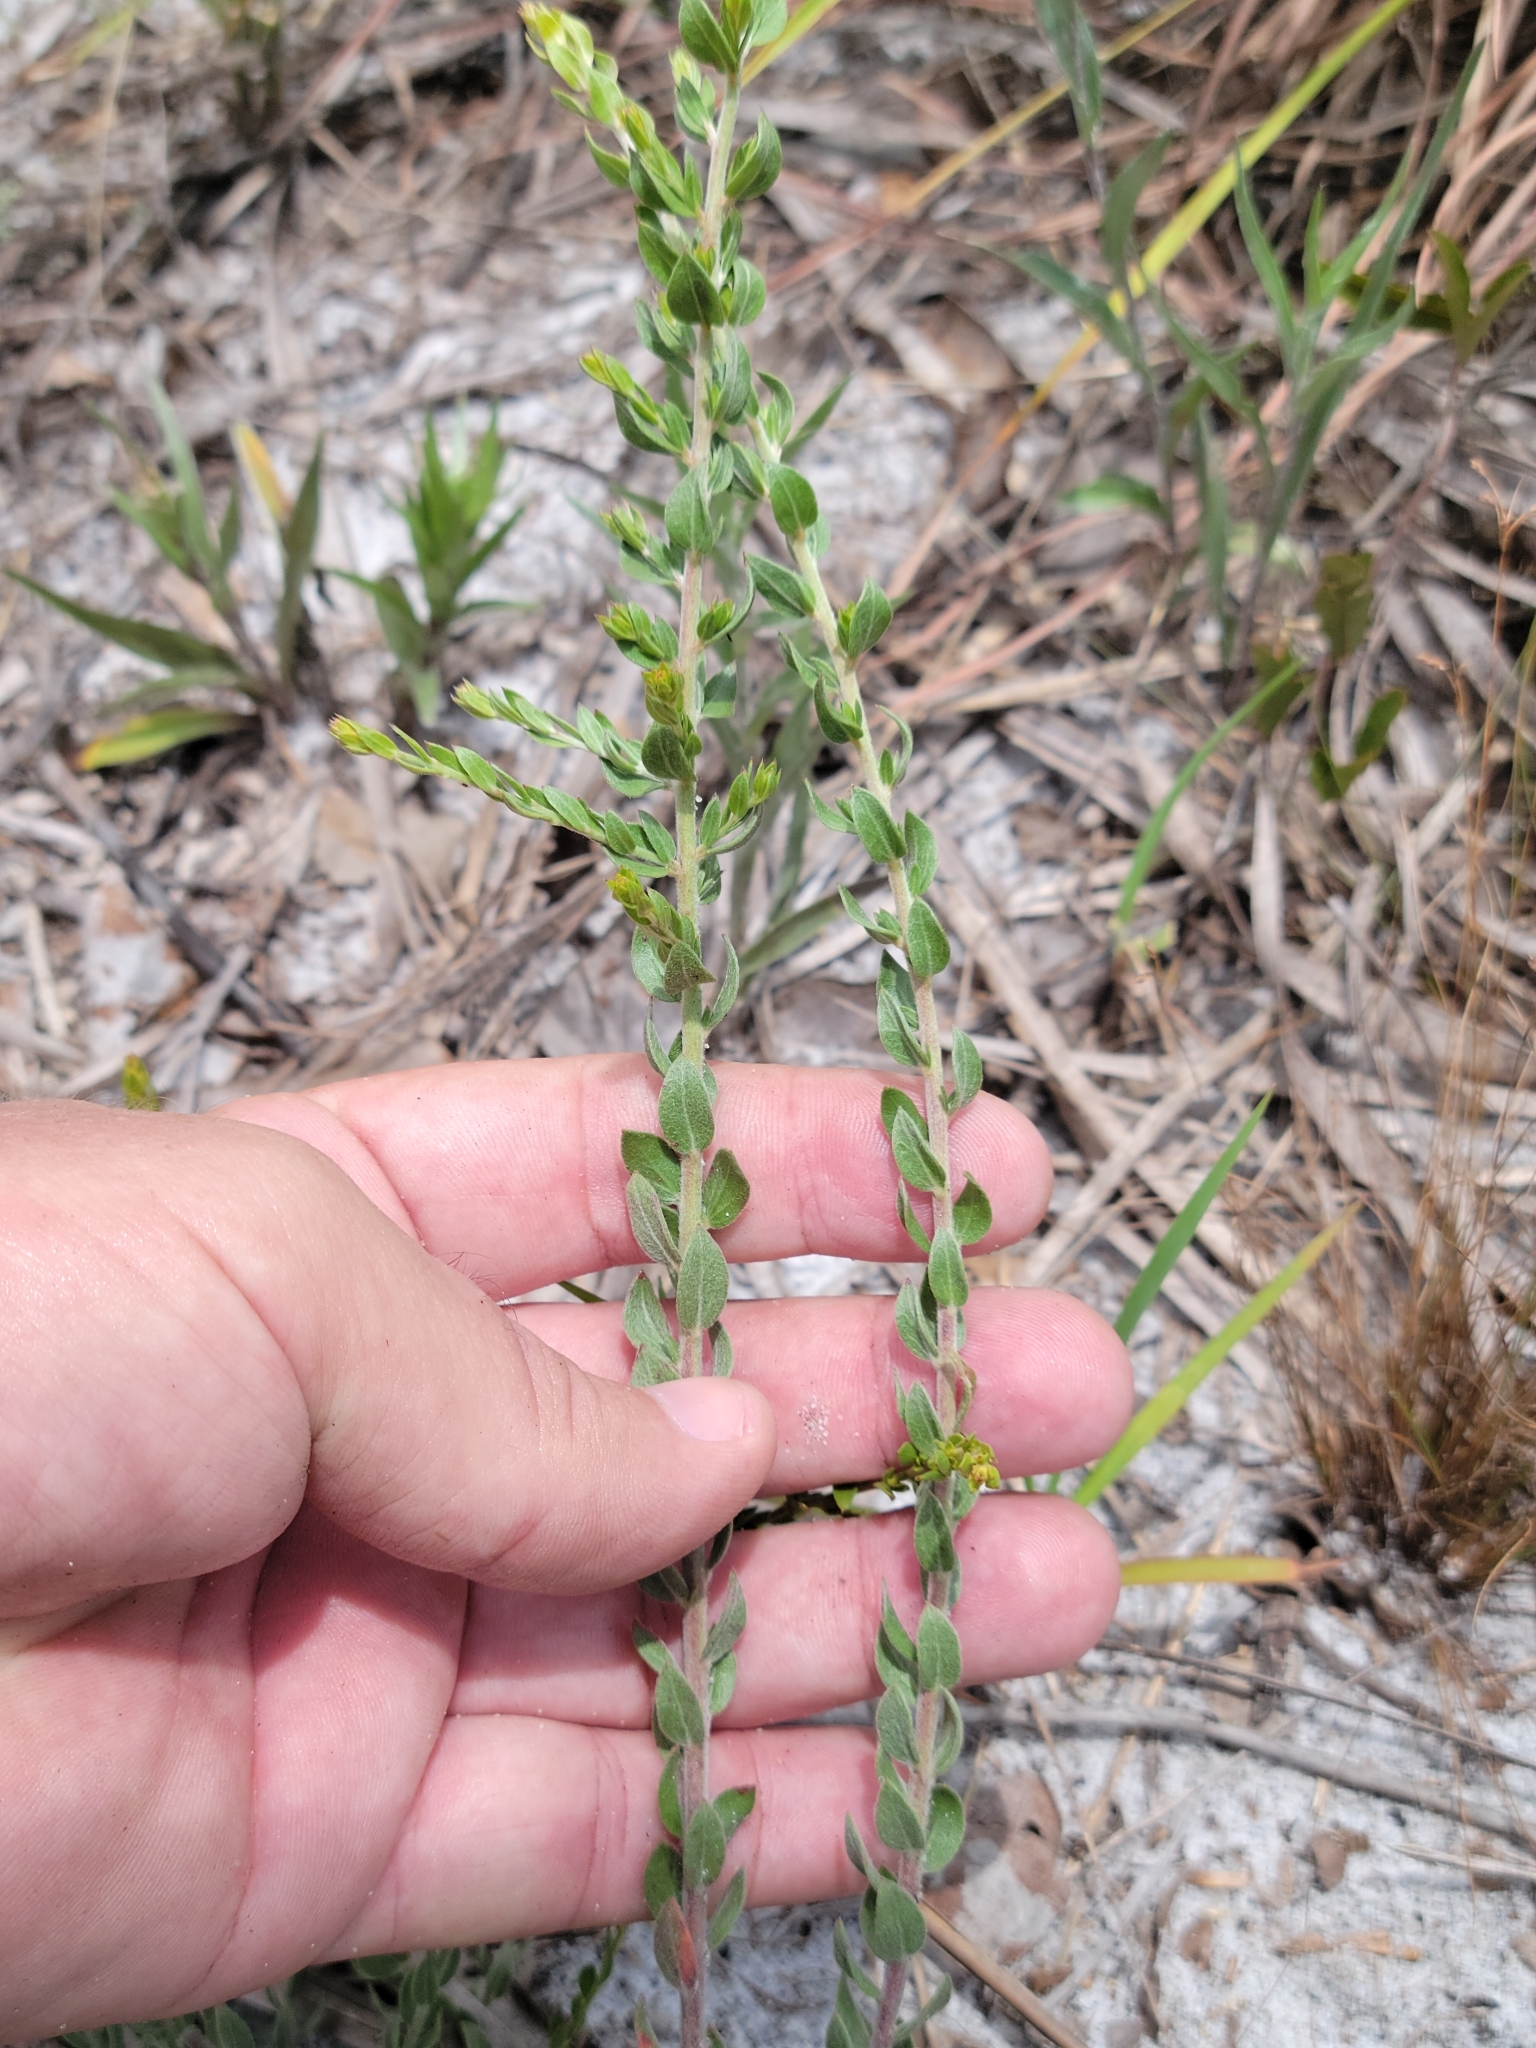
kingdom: Plantae
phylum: Tracheophyta
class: Magnoliopsida
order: Malvales
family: Cistaceae
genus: Lechea
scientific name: Lechea cernua
